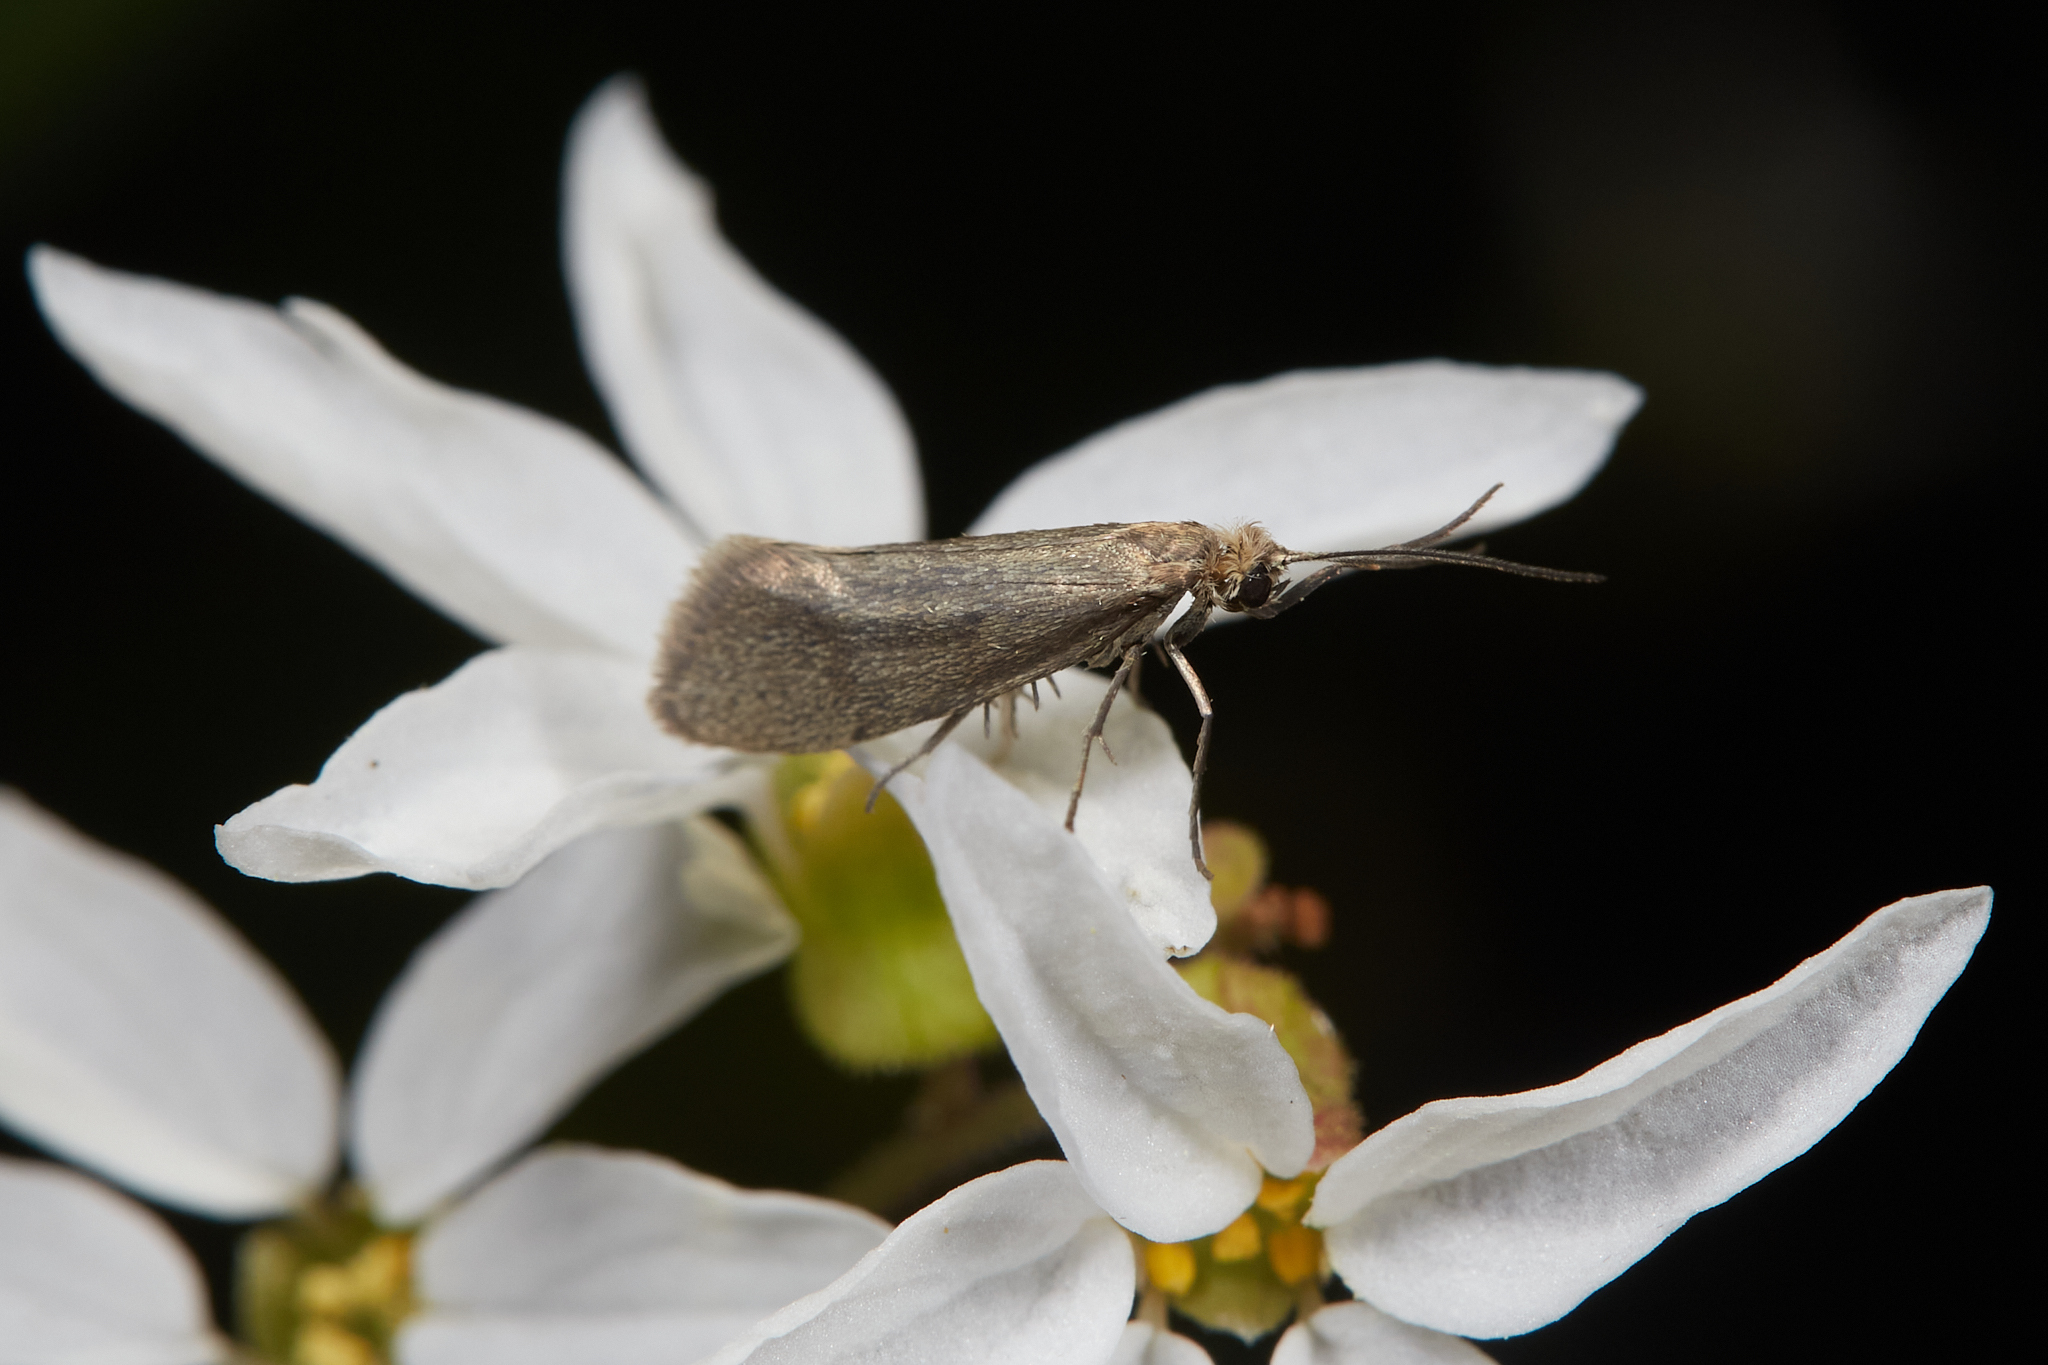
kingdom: Animalia
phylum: Arthropoda
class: Insecta
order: Lepidoptera
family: Prodoxidae
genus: Greya
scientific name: Greya politella
